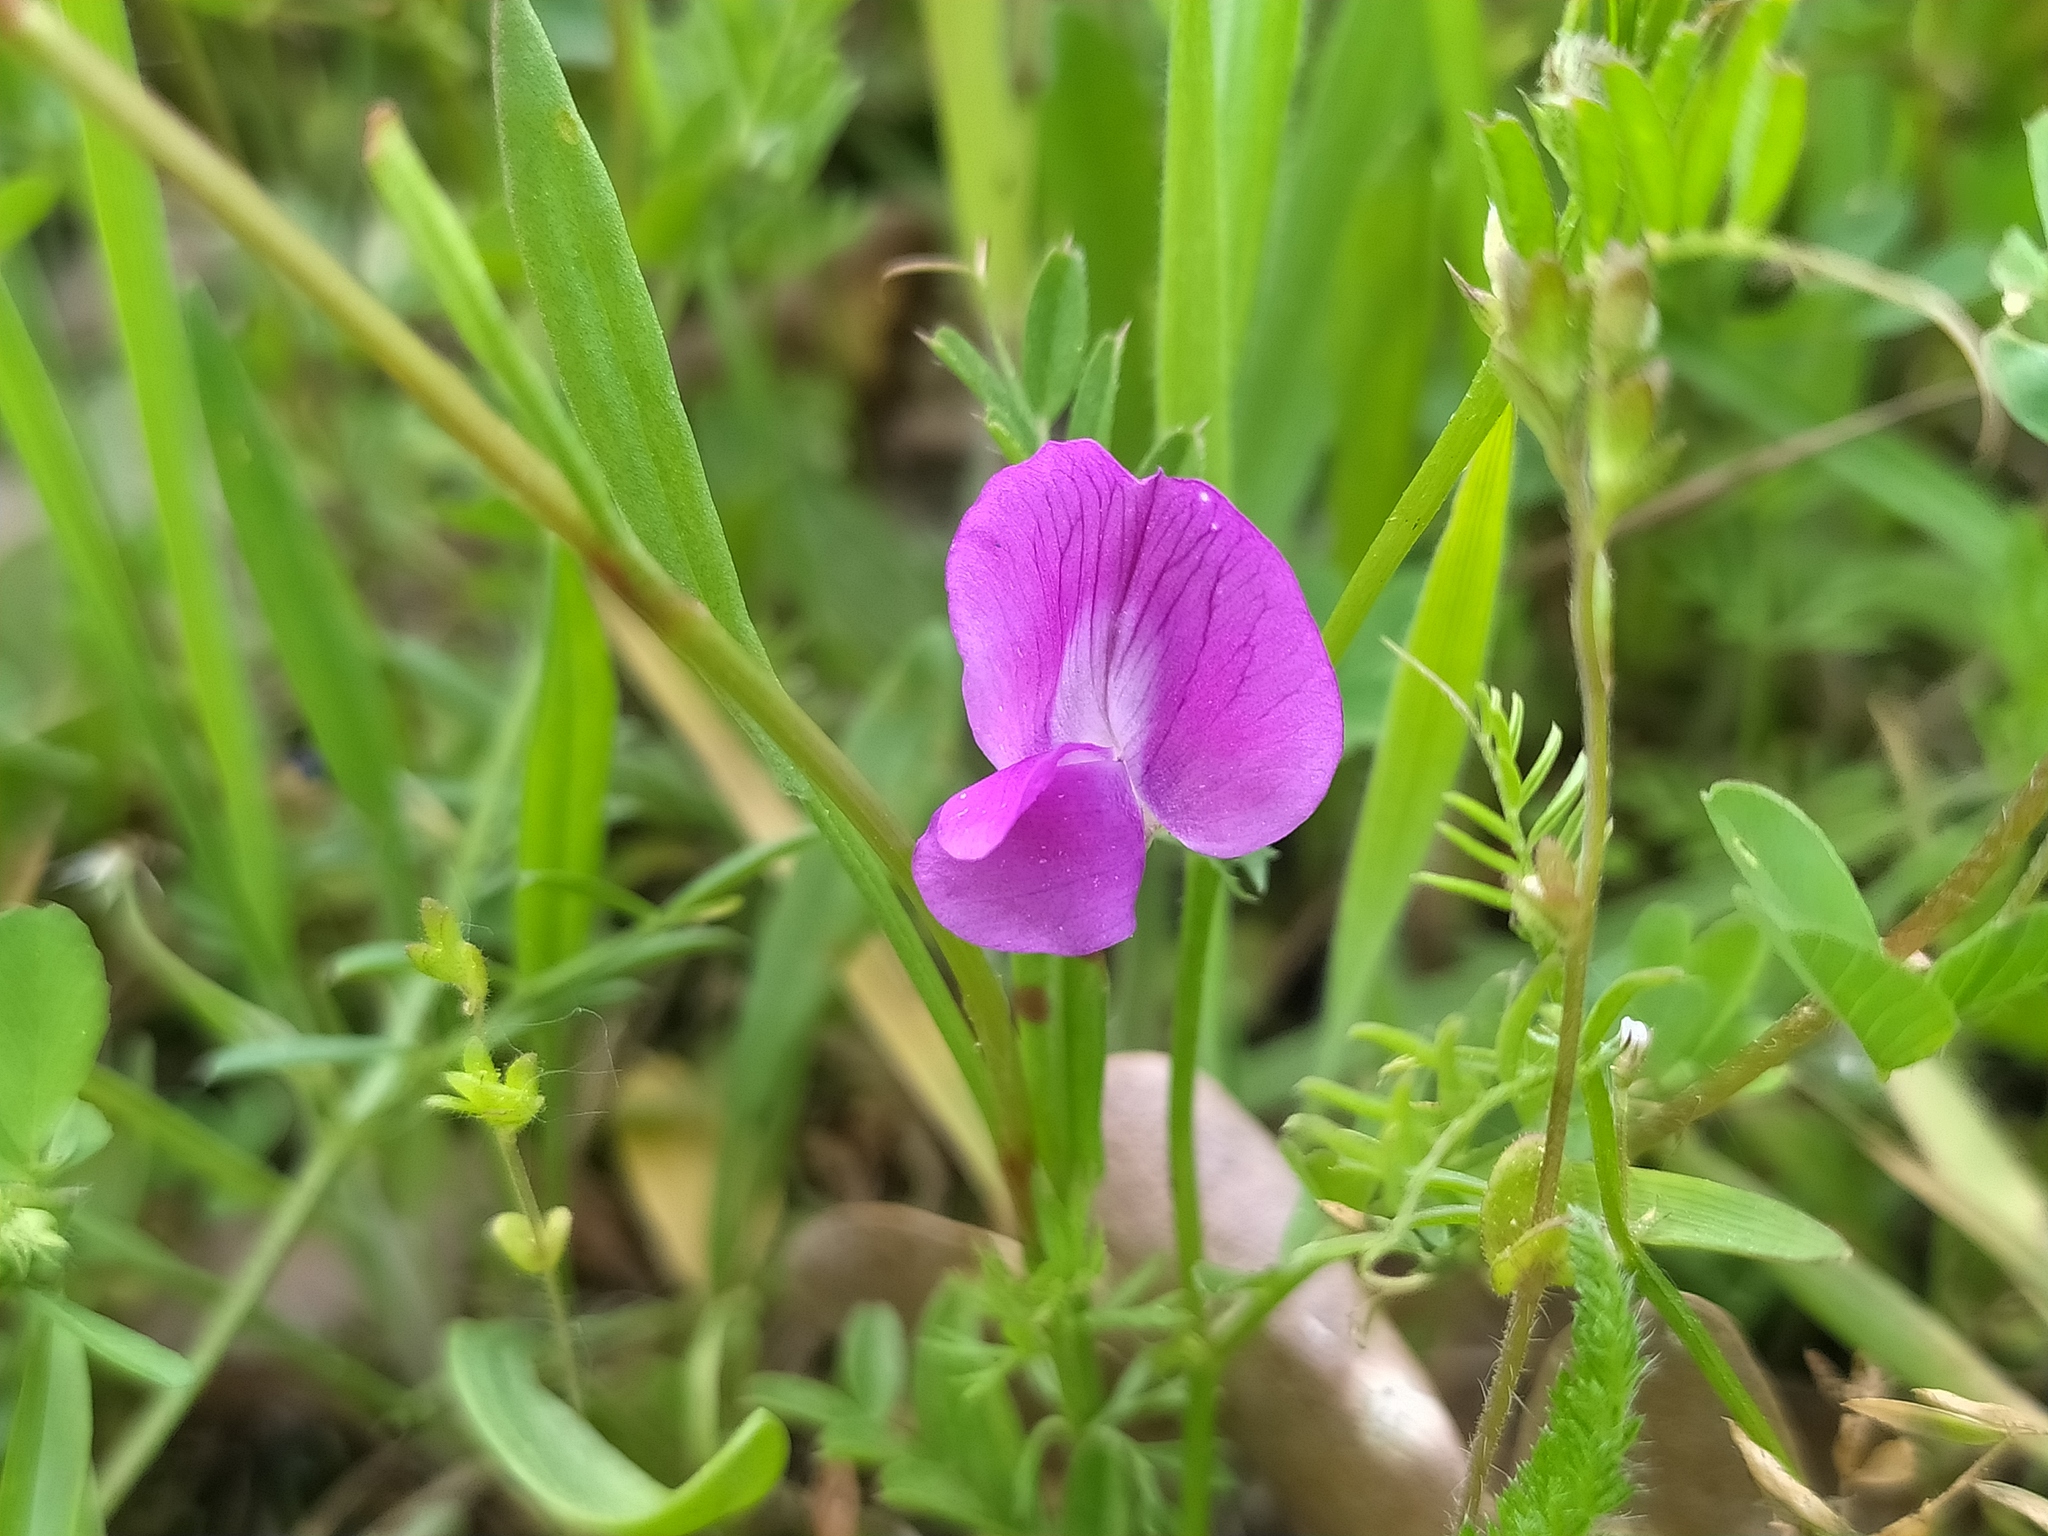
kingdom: Plantae
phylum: Tracheophyta
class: Magnoliopsida
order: Fabales
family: Fabaceae
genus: Vicia
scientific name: Vicia sativa
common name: Garden vetch
